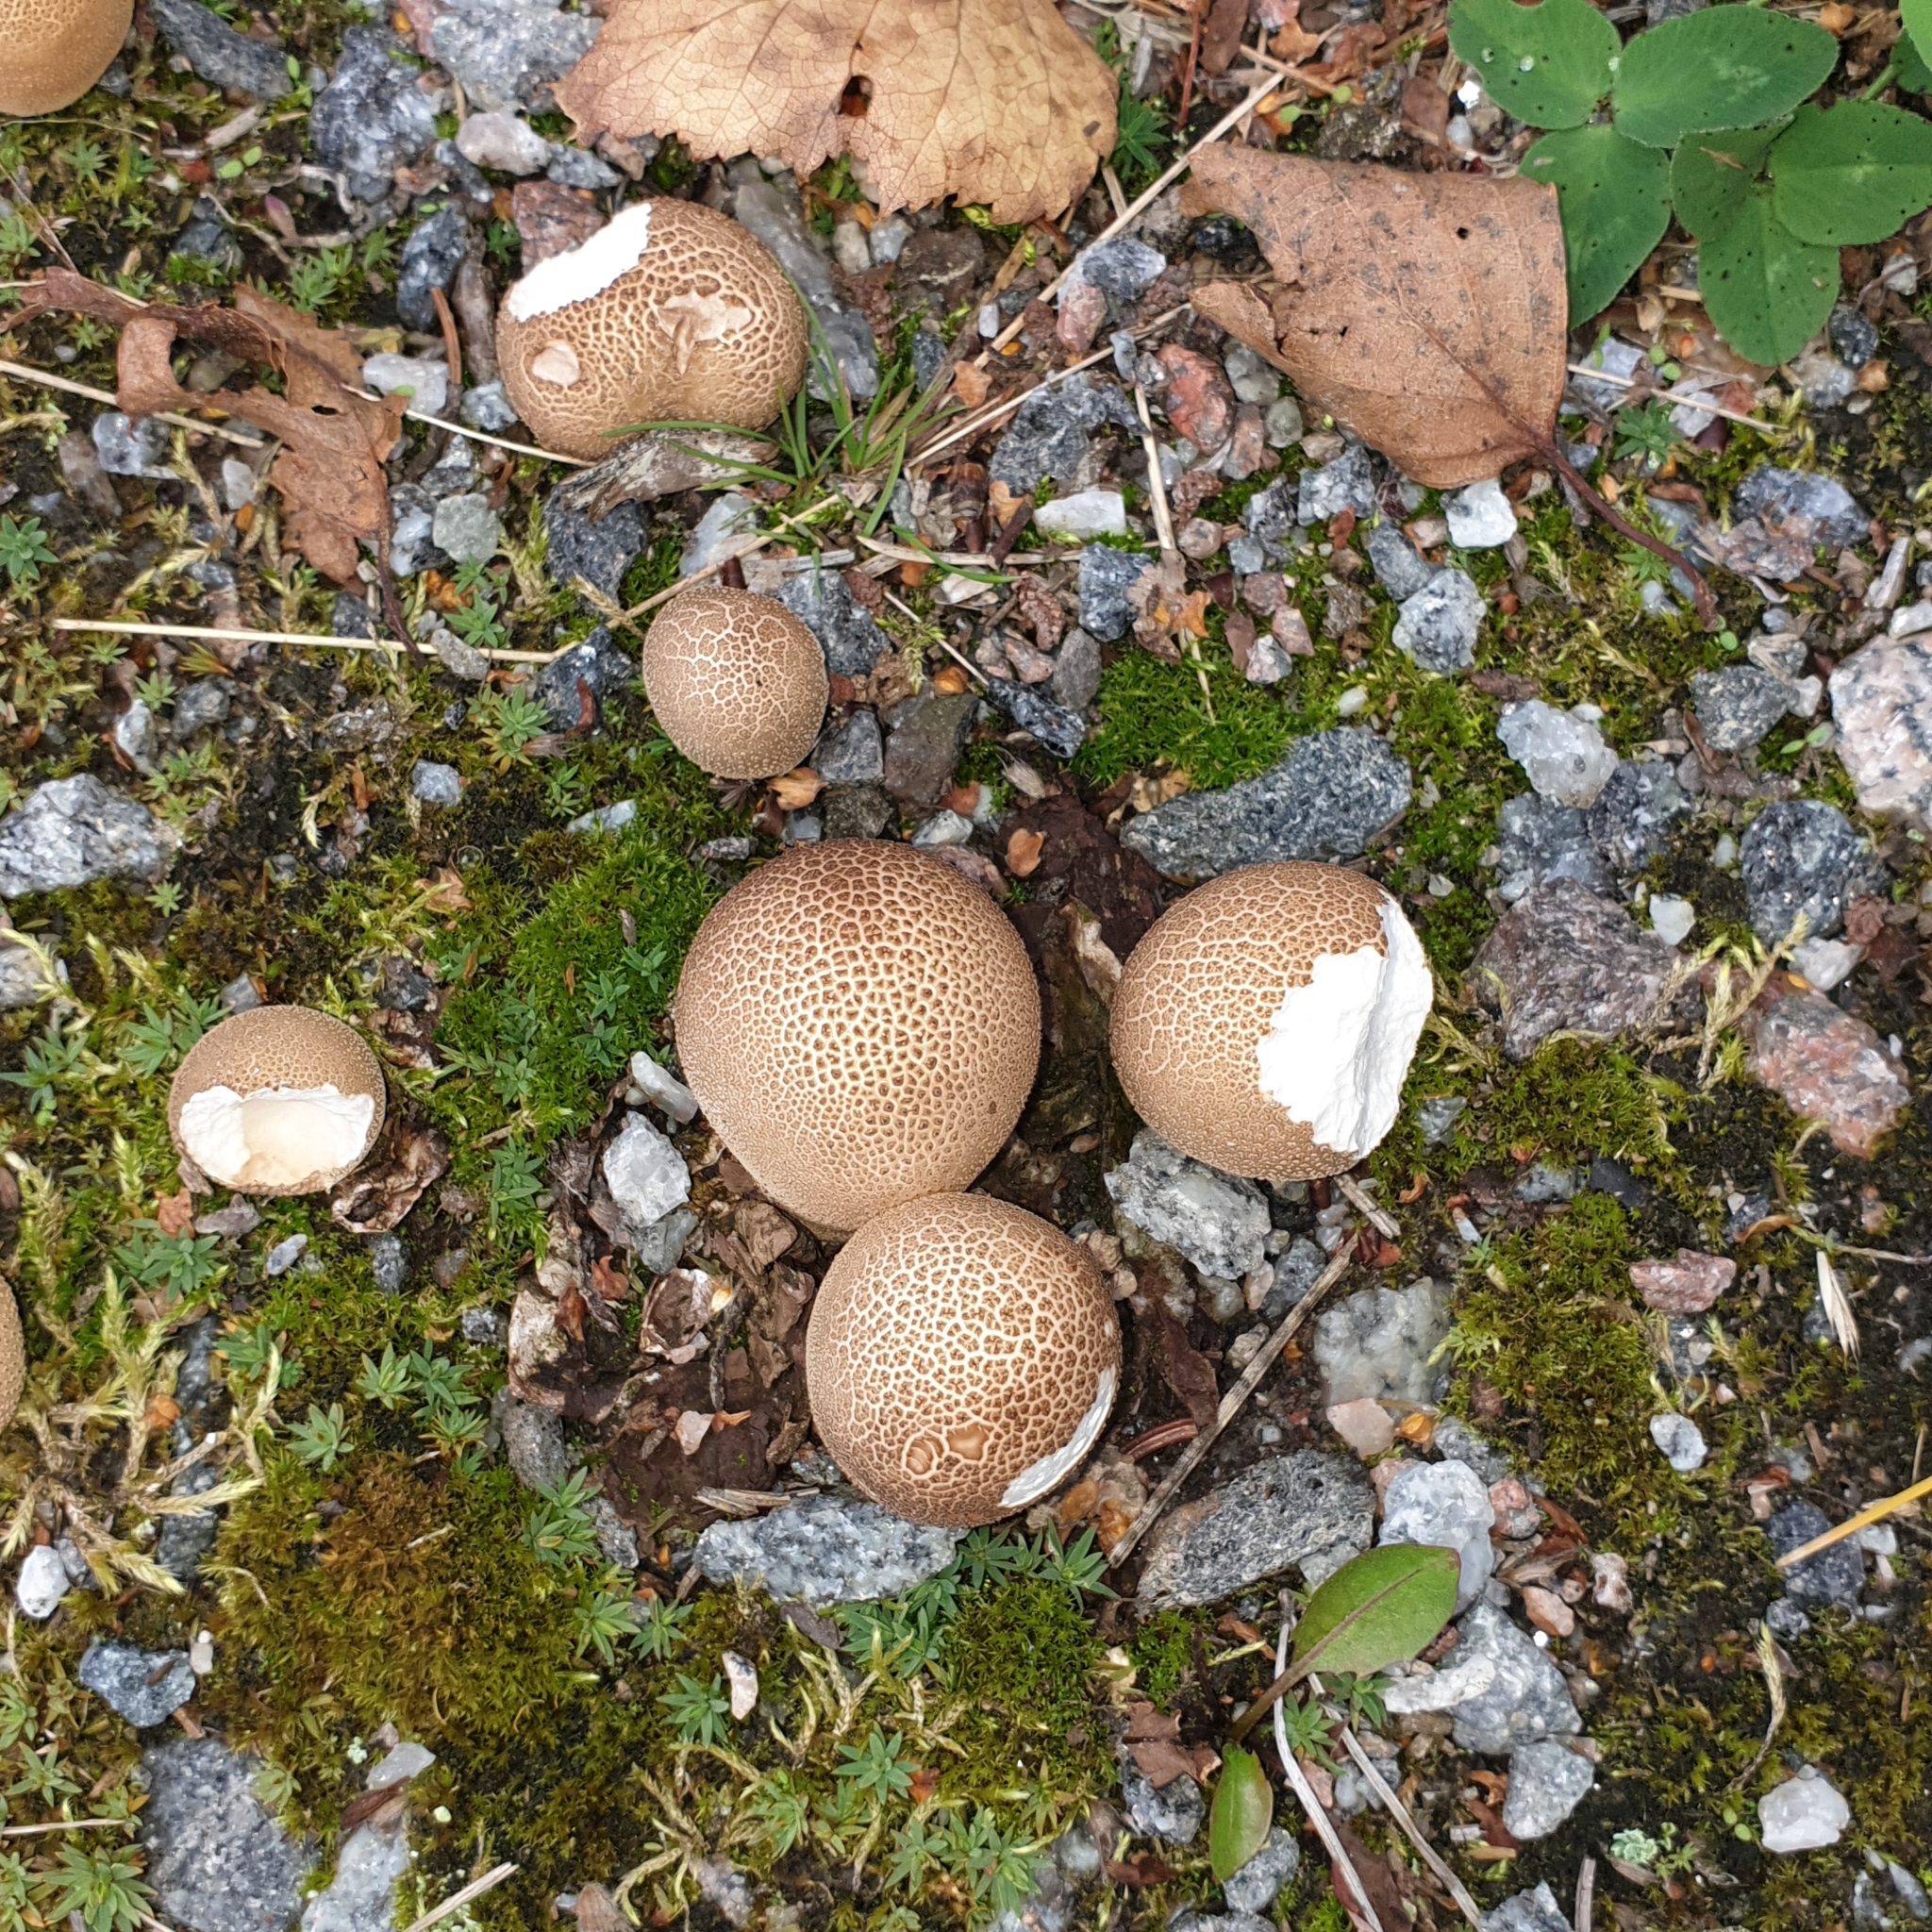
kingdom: Fungi
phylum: Basidiomycota
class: Agaricomycetes
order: Agaricales
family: Lycoperdaceae
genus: Lycoperdon
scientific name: Lycoperdon perlatum
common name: Common puffball
